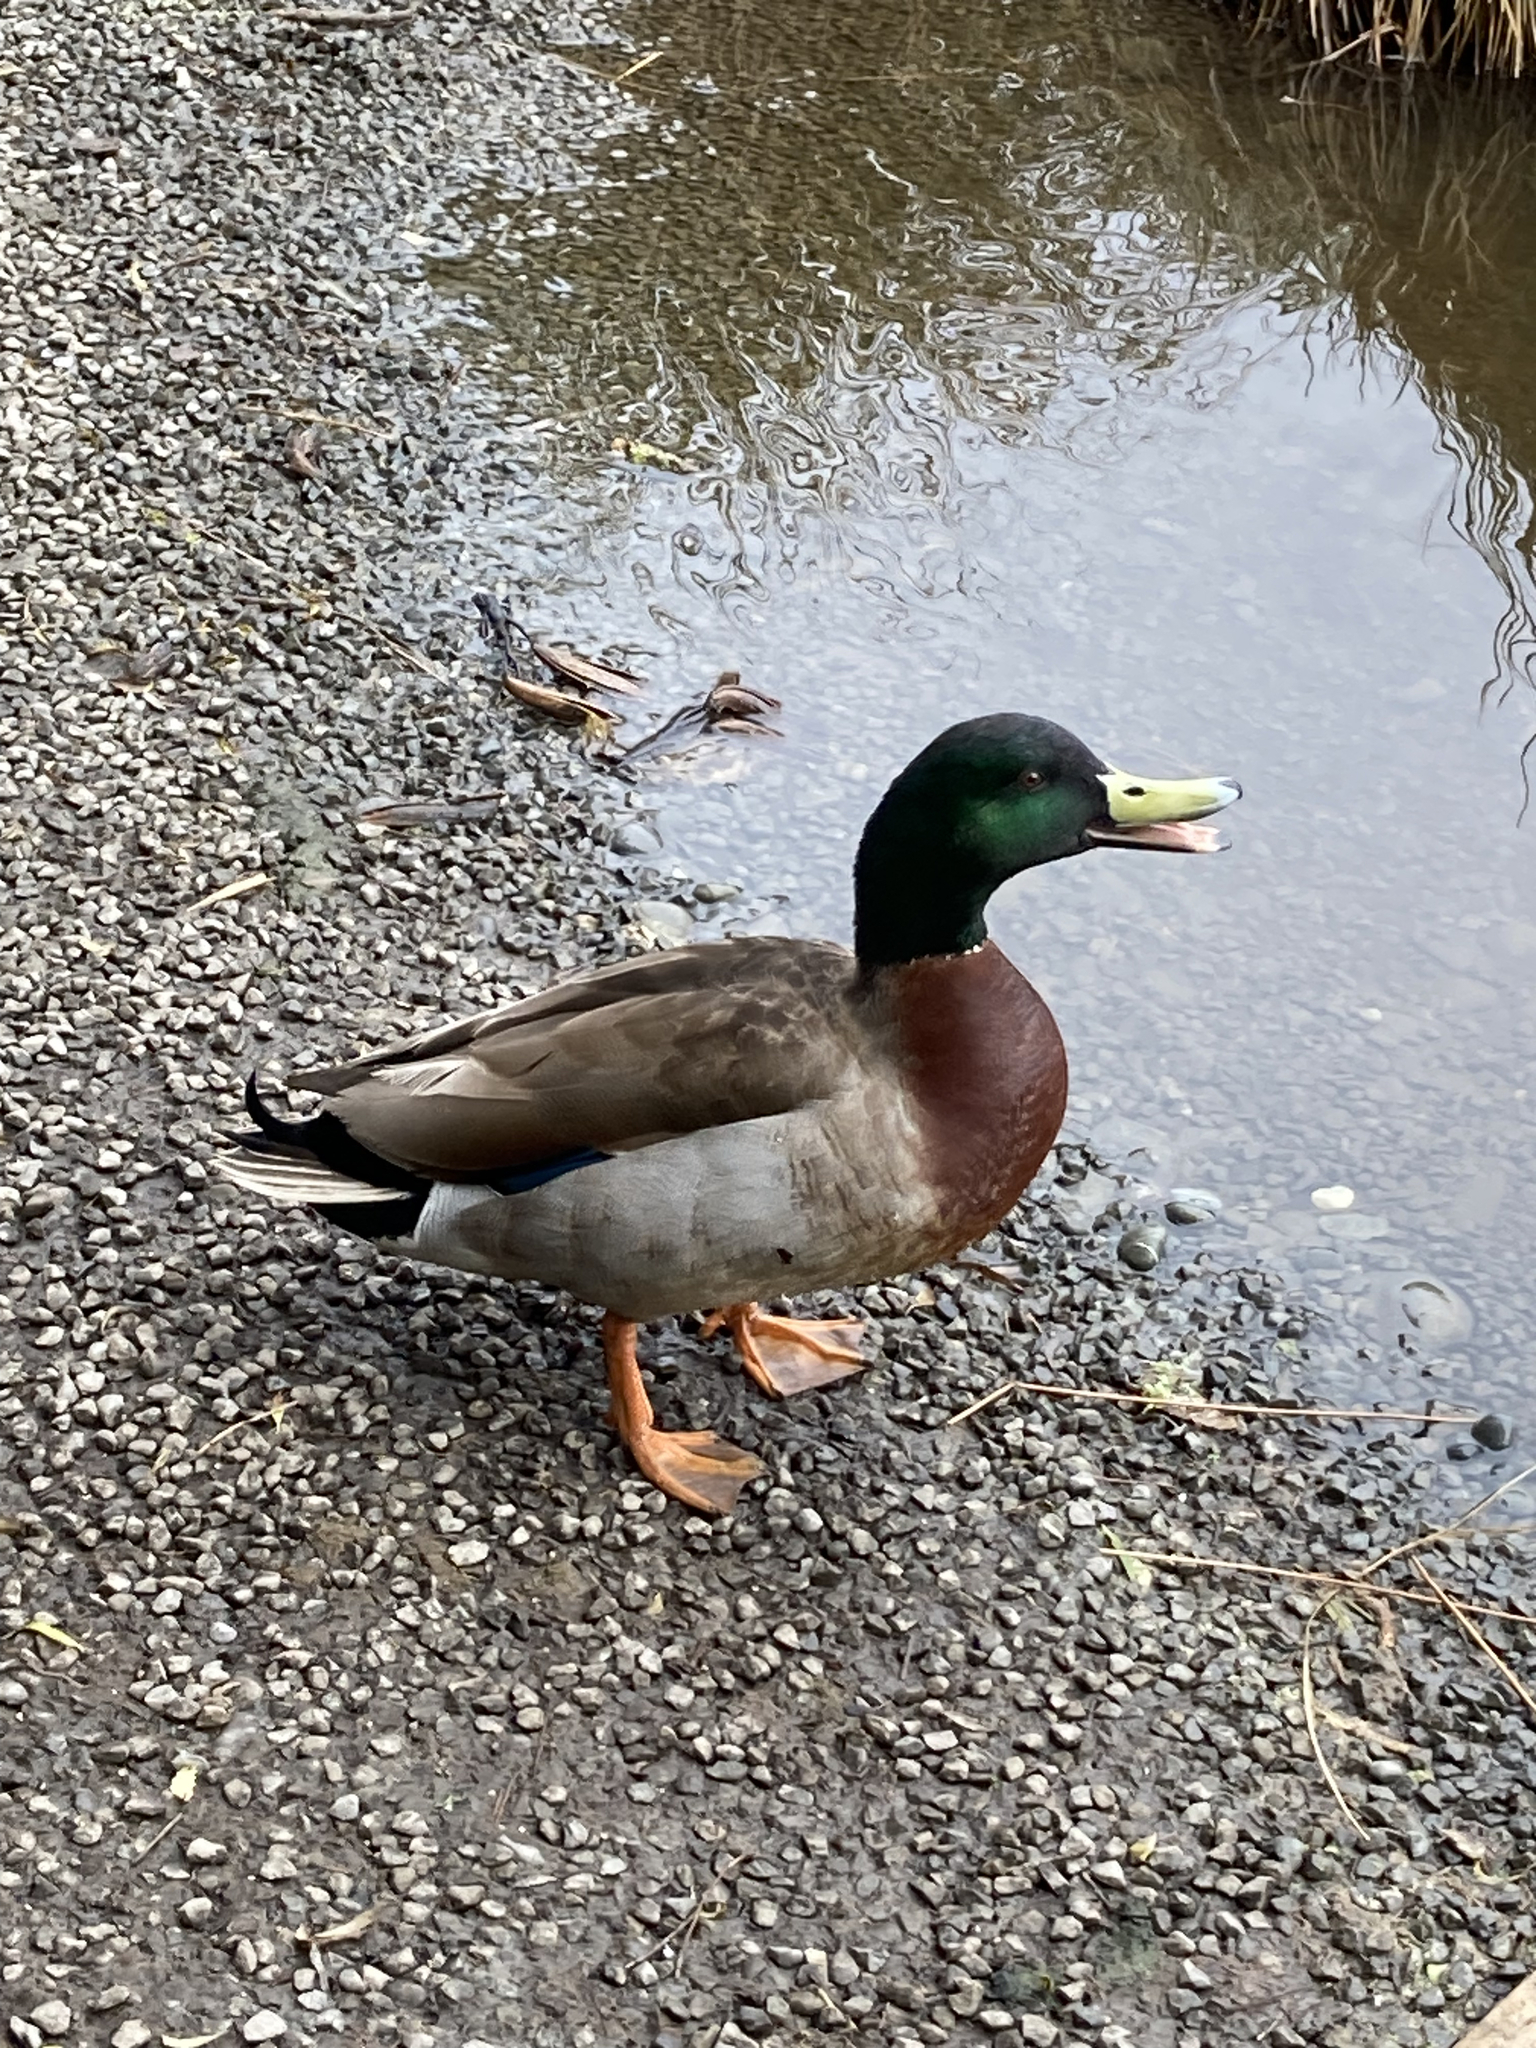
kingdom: Animalia
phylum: Chordata
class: Aves
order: Anseriformes
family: Anatidae
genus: Anas
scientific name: Anas platyrhynchos
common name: Mallard
